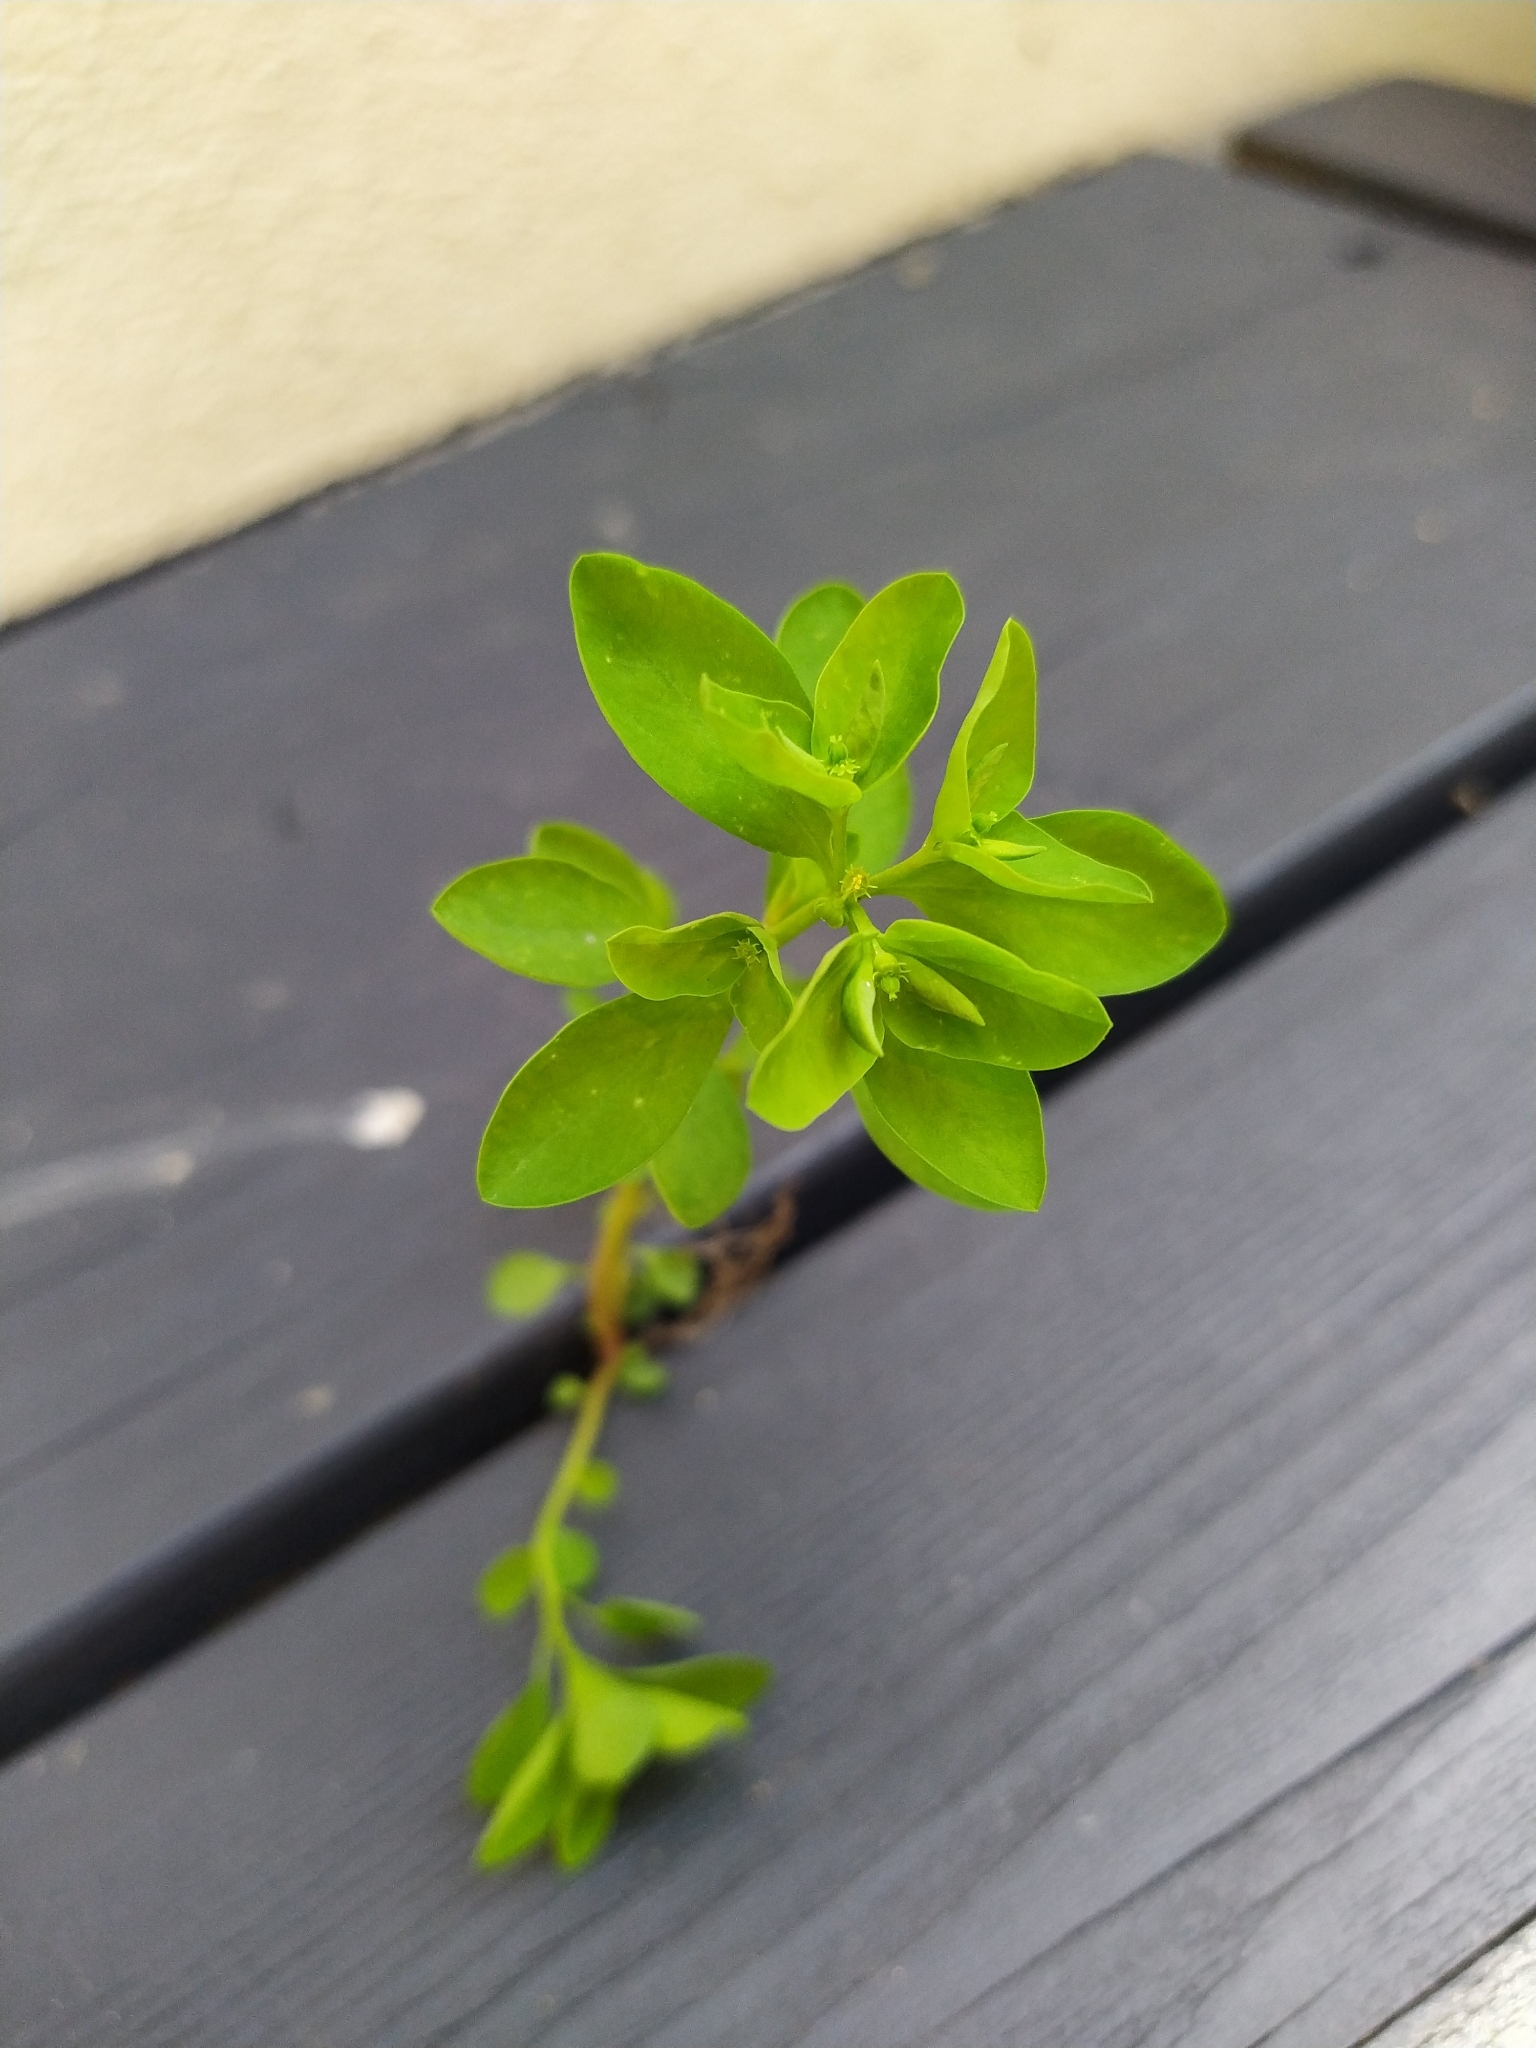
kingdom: Plantae
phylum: Tracheophyta
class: Magnoliopsida
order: Malpighiales
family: Euphorbiaceae
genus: Euphorbia
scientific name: Euphorbia peplus
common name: Petty spurge
